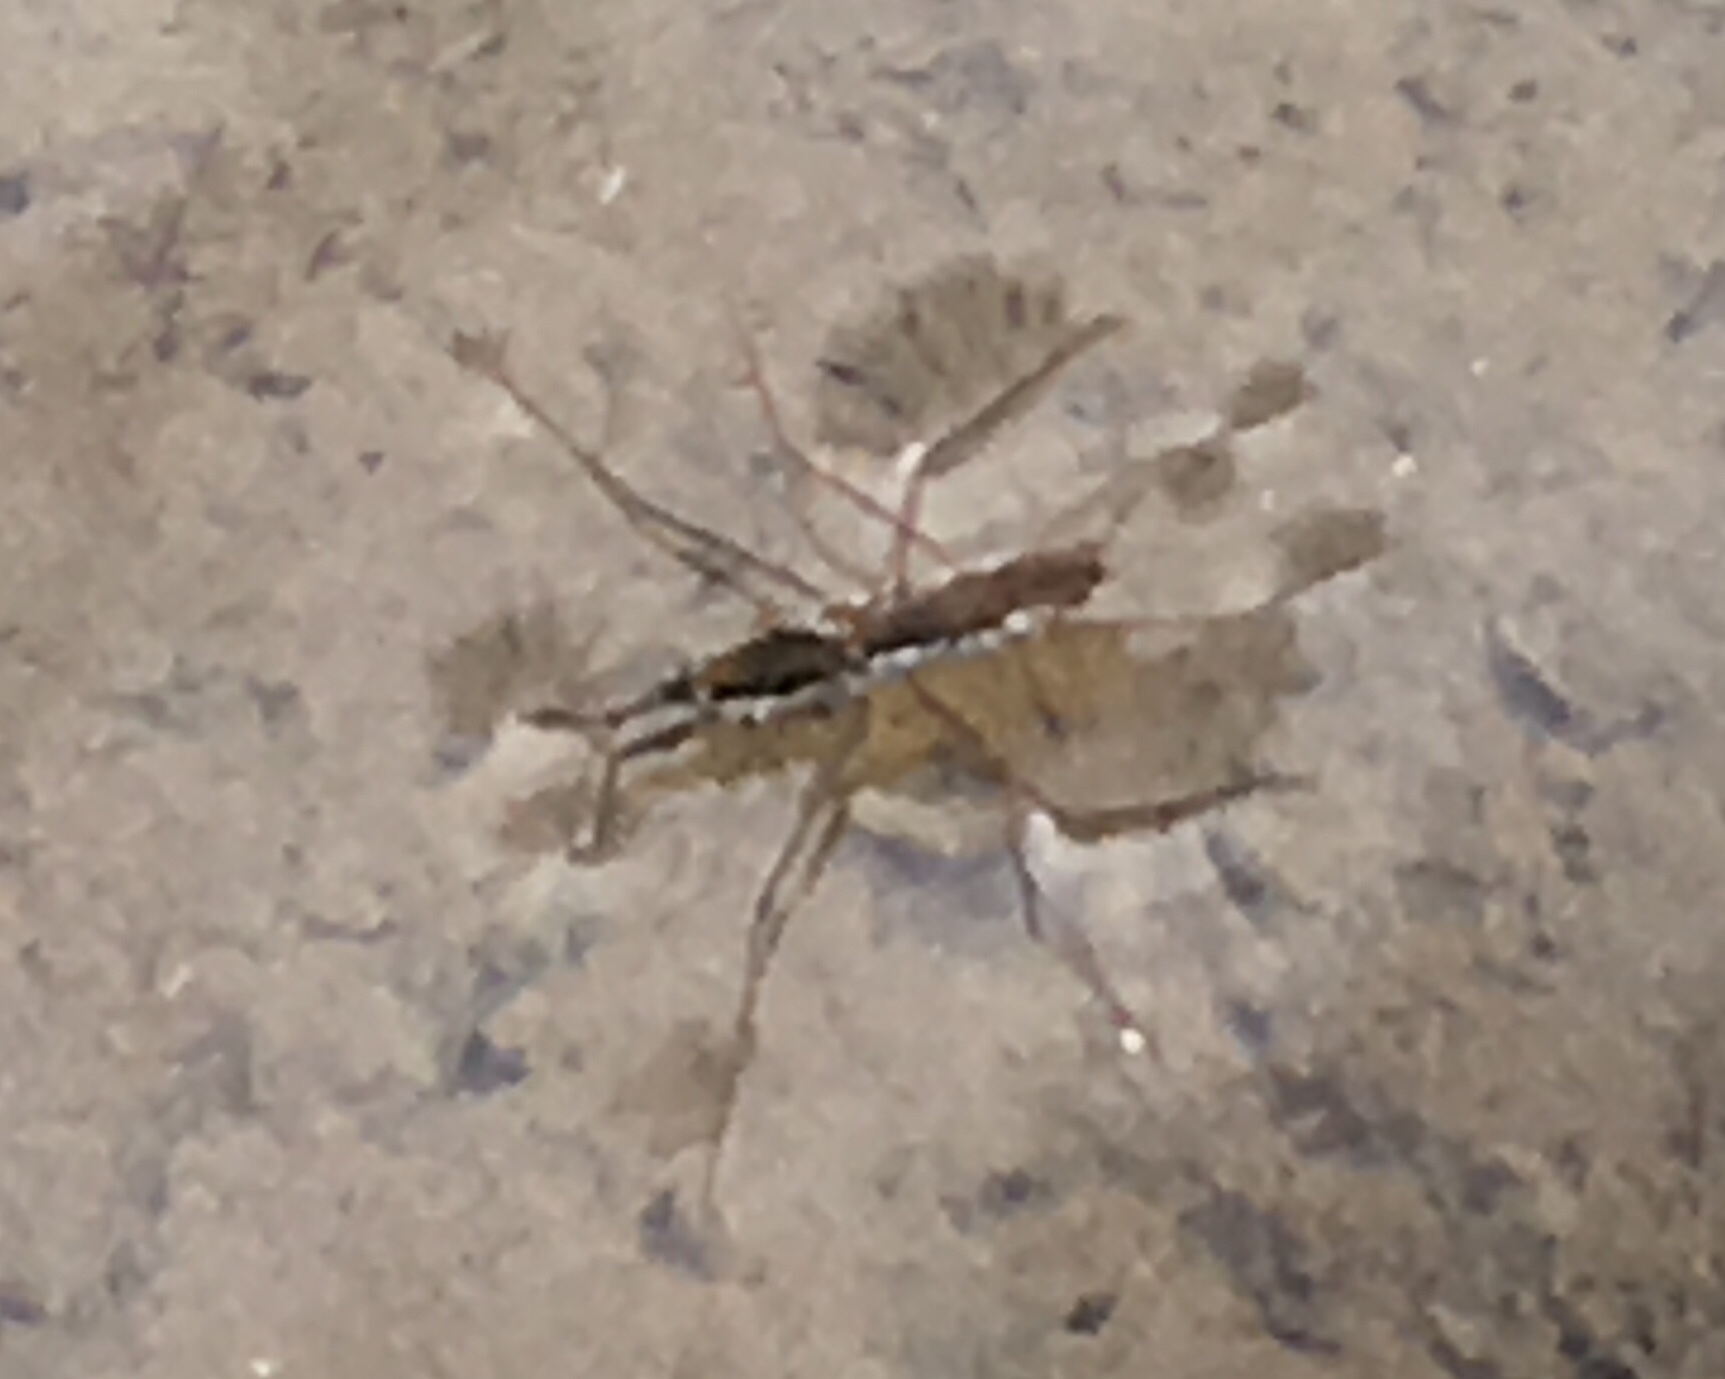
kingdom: Animalia
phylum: Arthropoda
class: Insecta
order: Hemiptera
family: Gerridae
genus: Aquarius
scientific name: Aquarius remigis
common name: Common water strider
